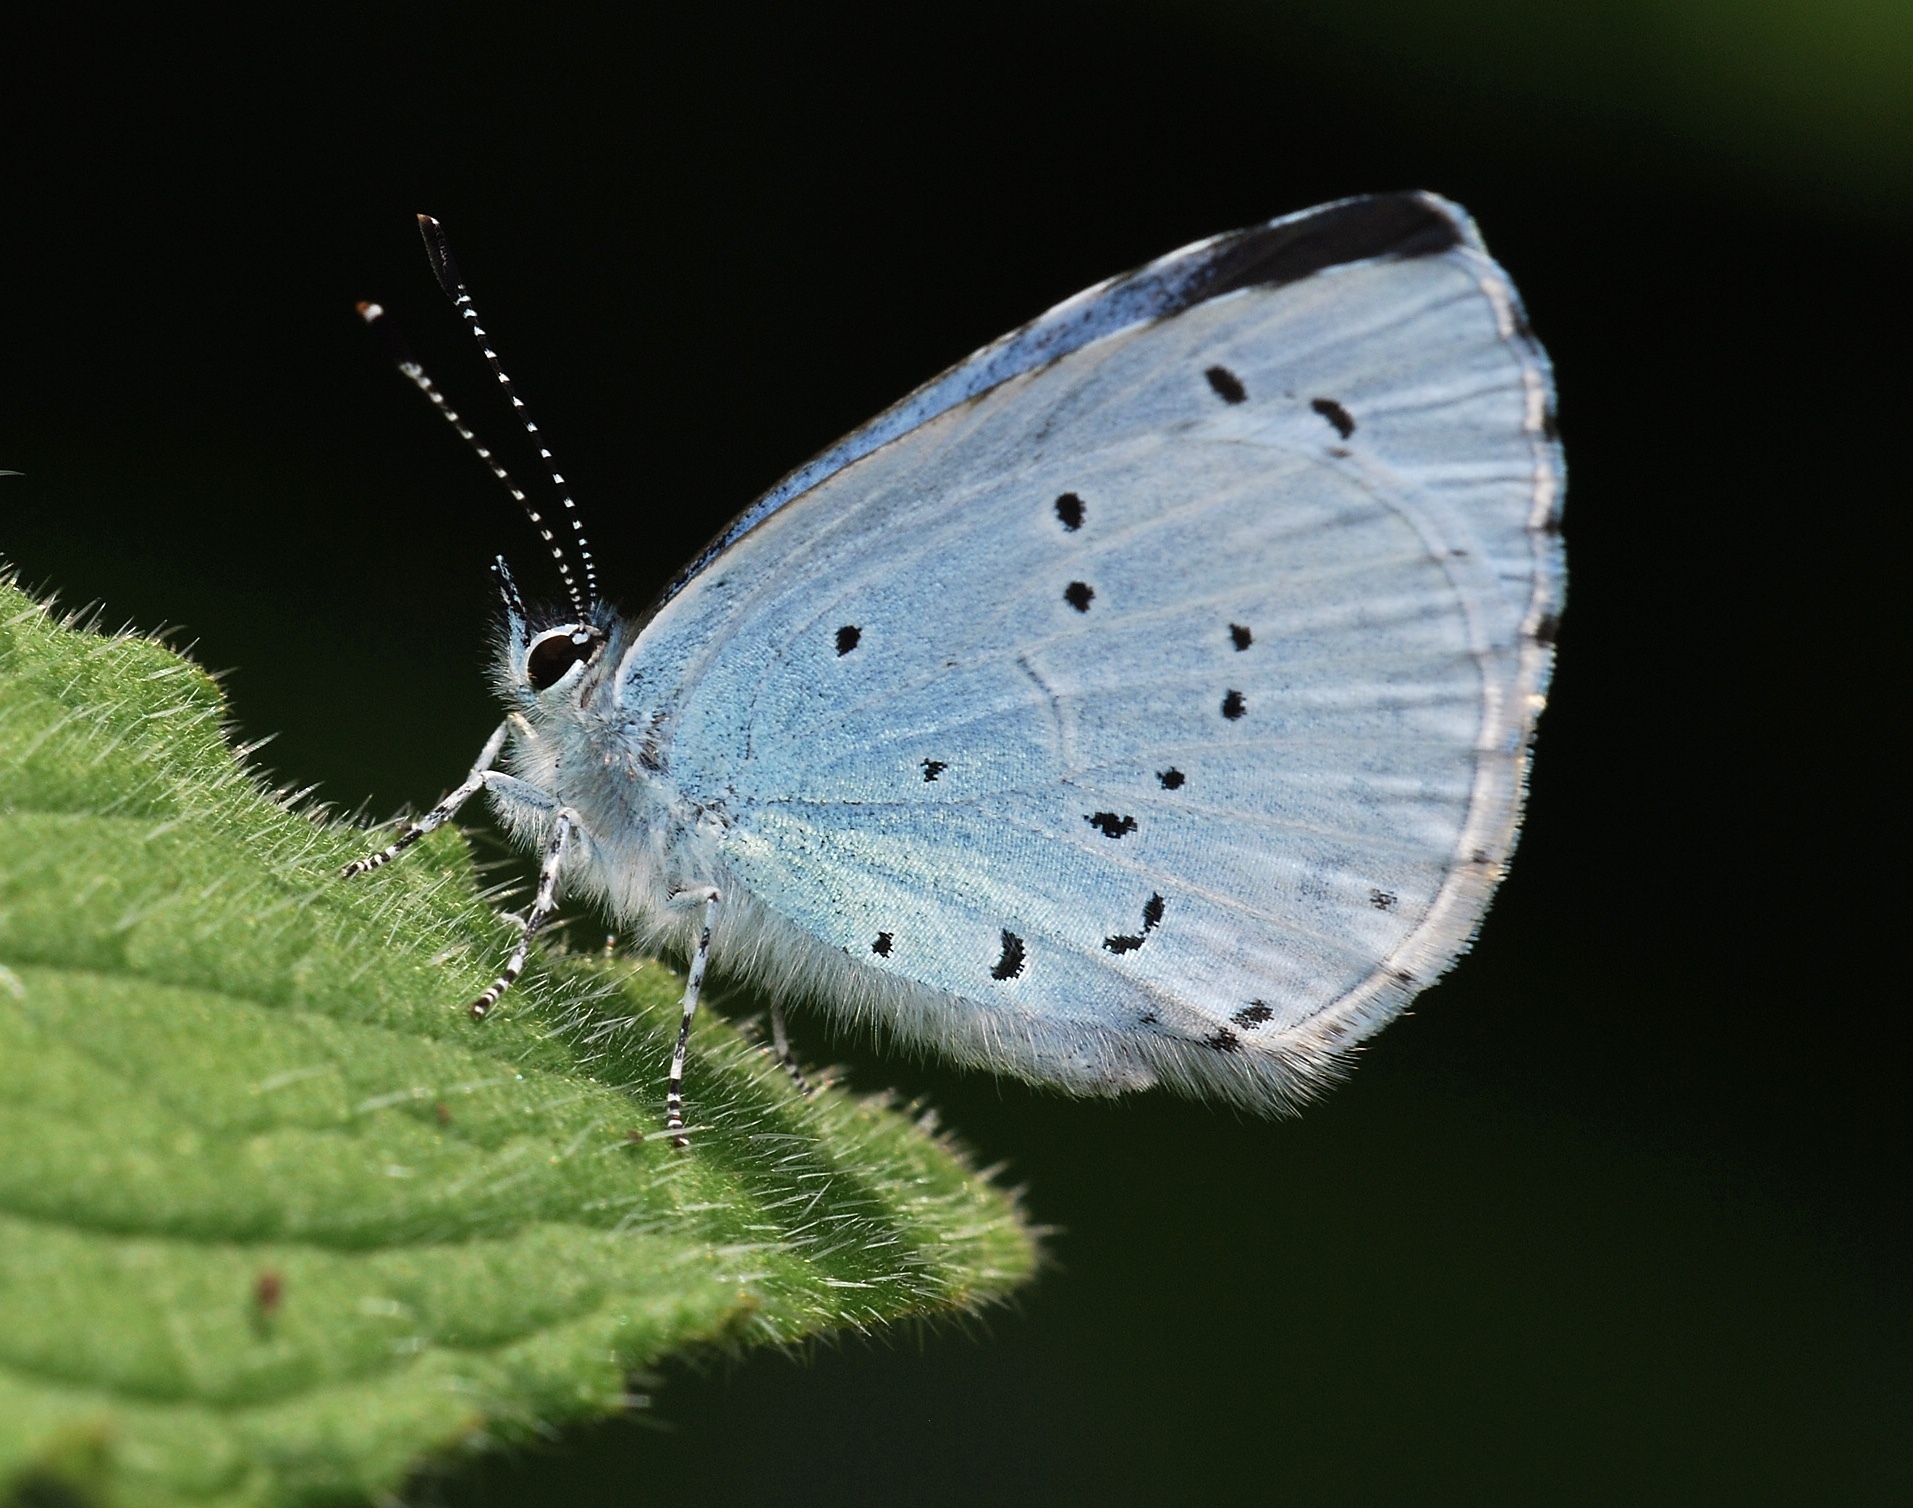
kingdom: Animalia
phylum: Arthropoda
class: Insecta
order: Lepidoptera
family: Lycaenidae
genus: Celastrina
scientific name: Celastrina argiolus
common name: Holly blue
